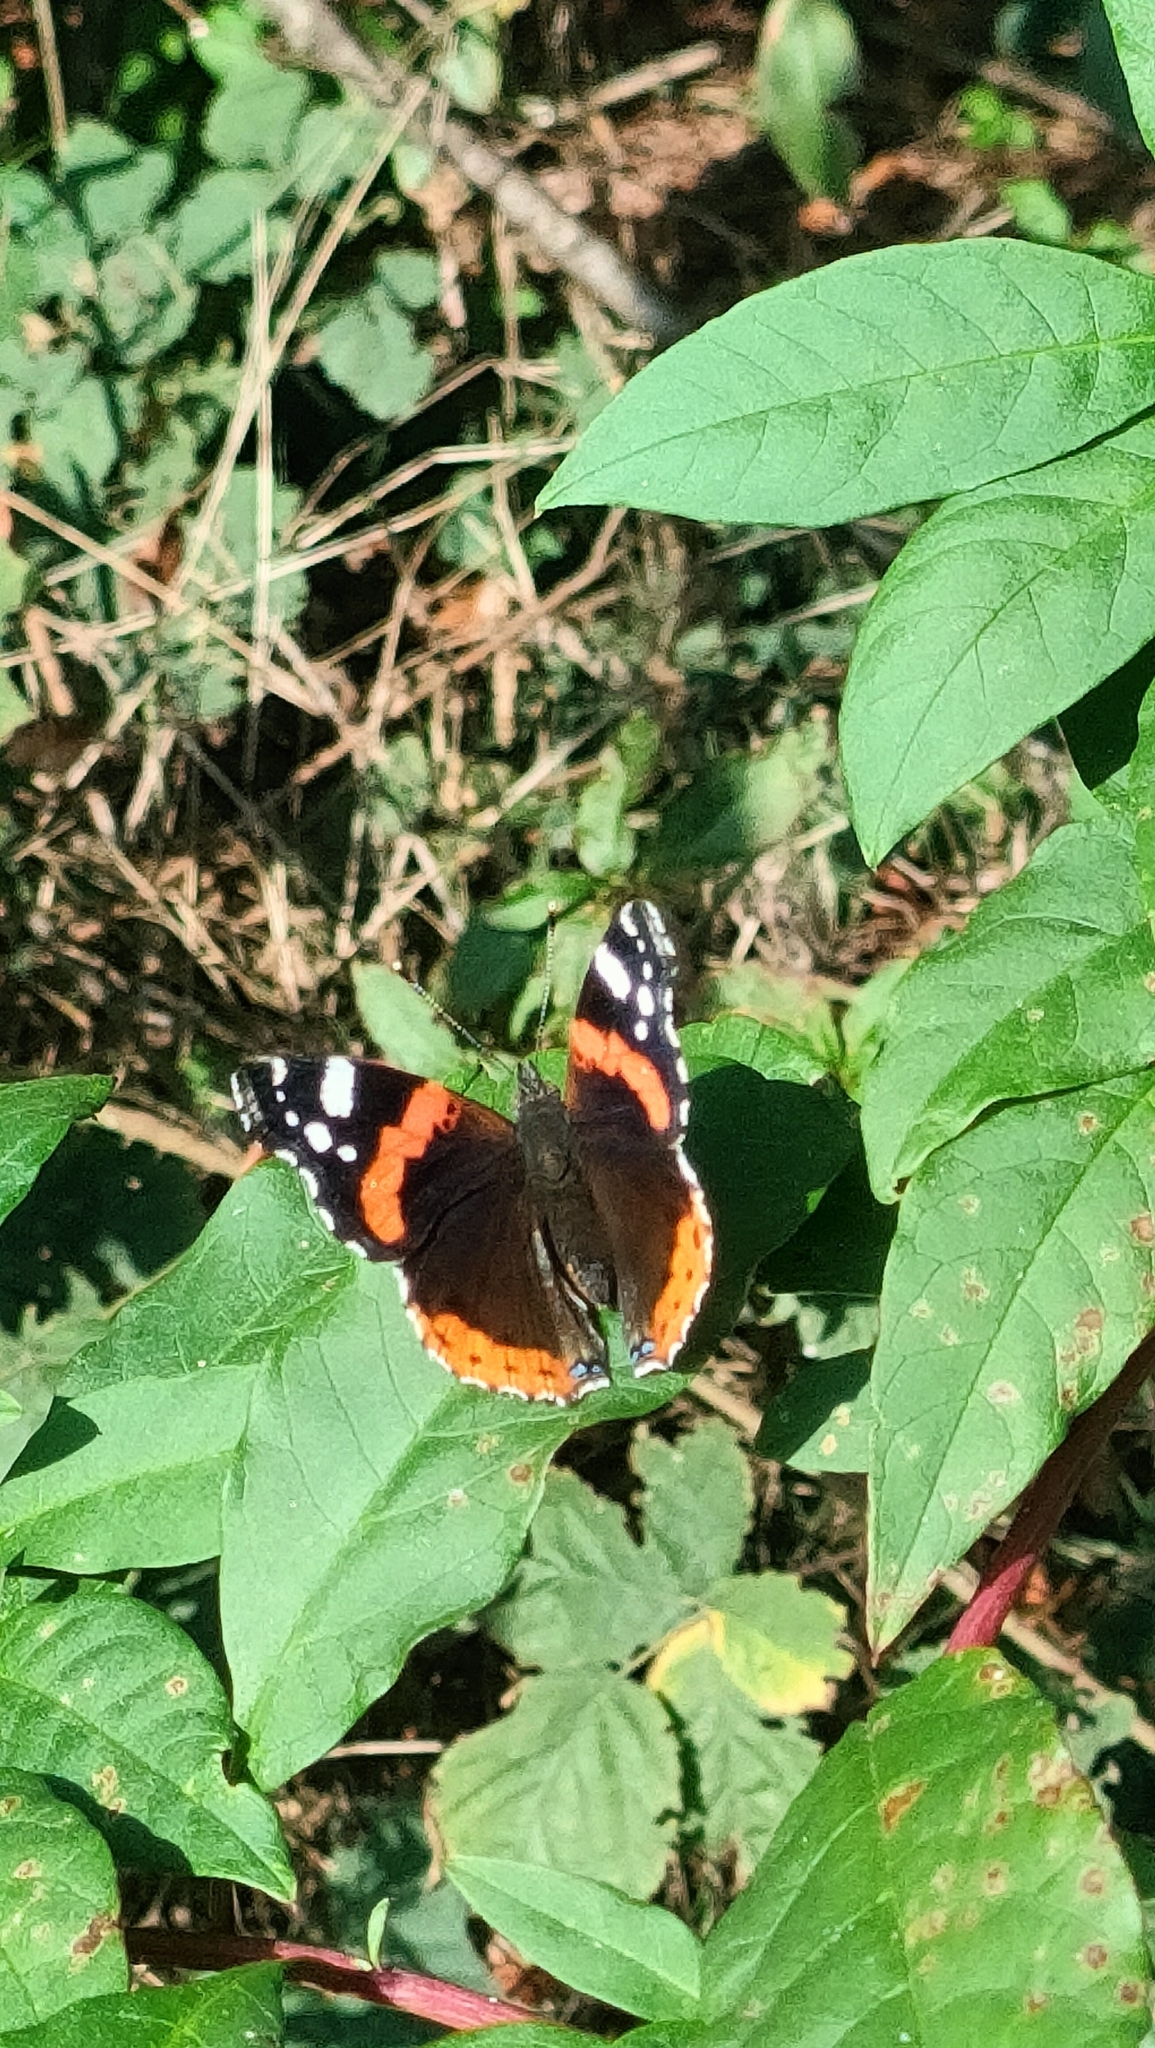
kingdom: Animalia
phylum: Arthropoda
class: Insecta
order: Lepidoptera
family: Nymphalidae
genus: Vanessa
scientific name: Vanessa atalanta
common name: Red admiral
